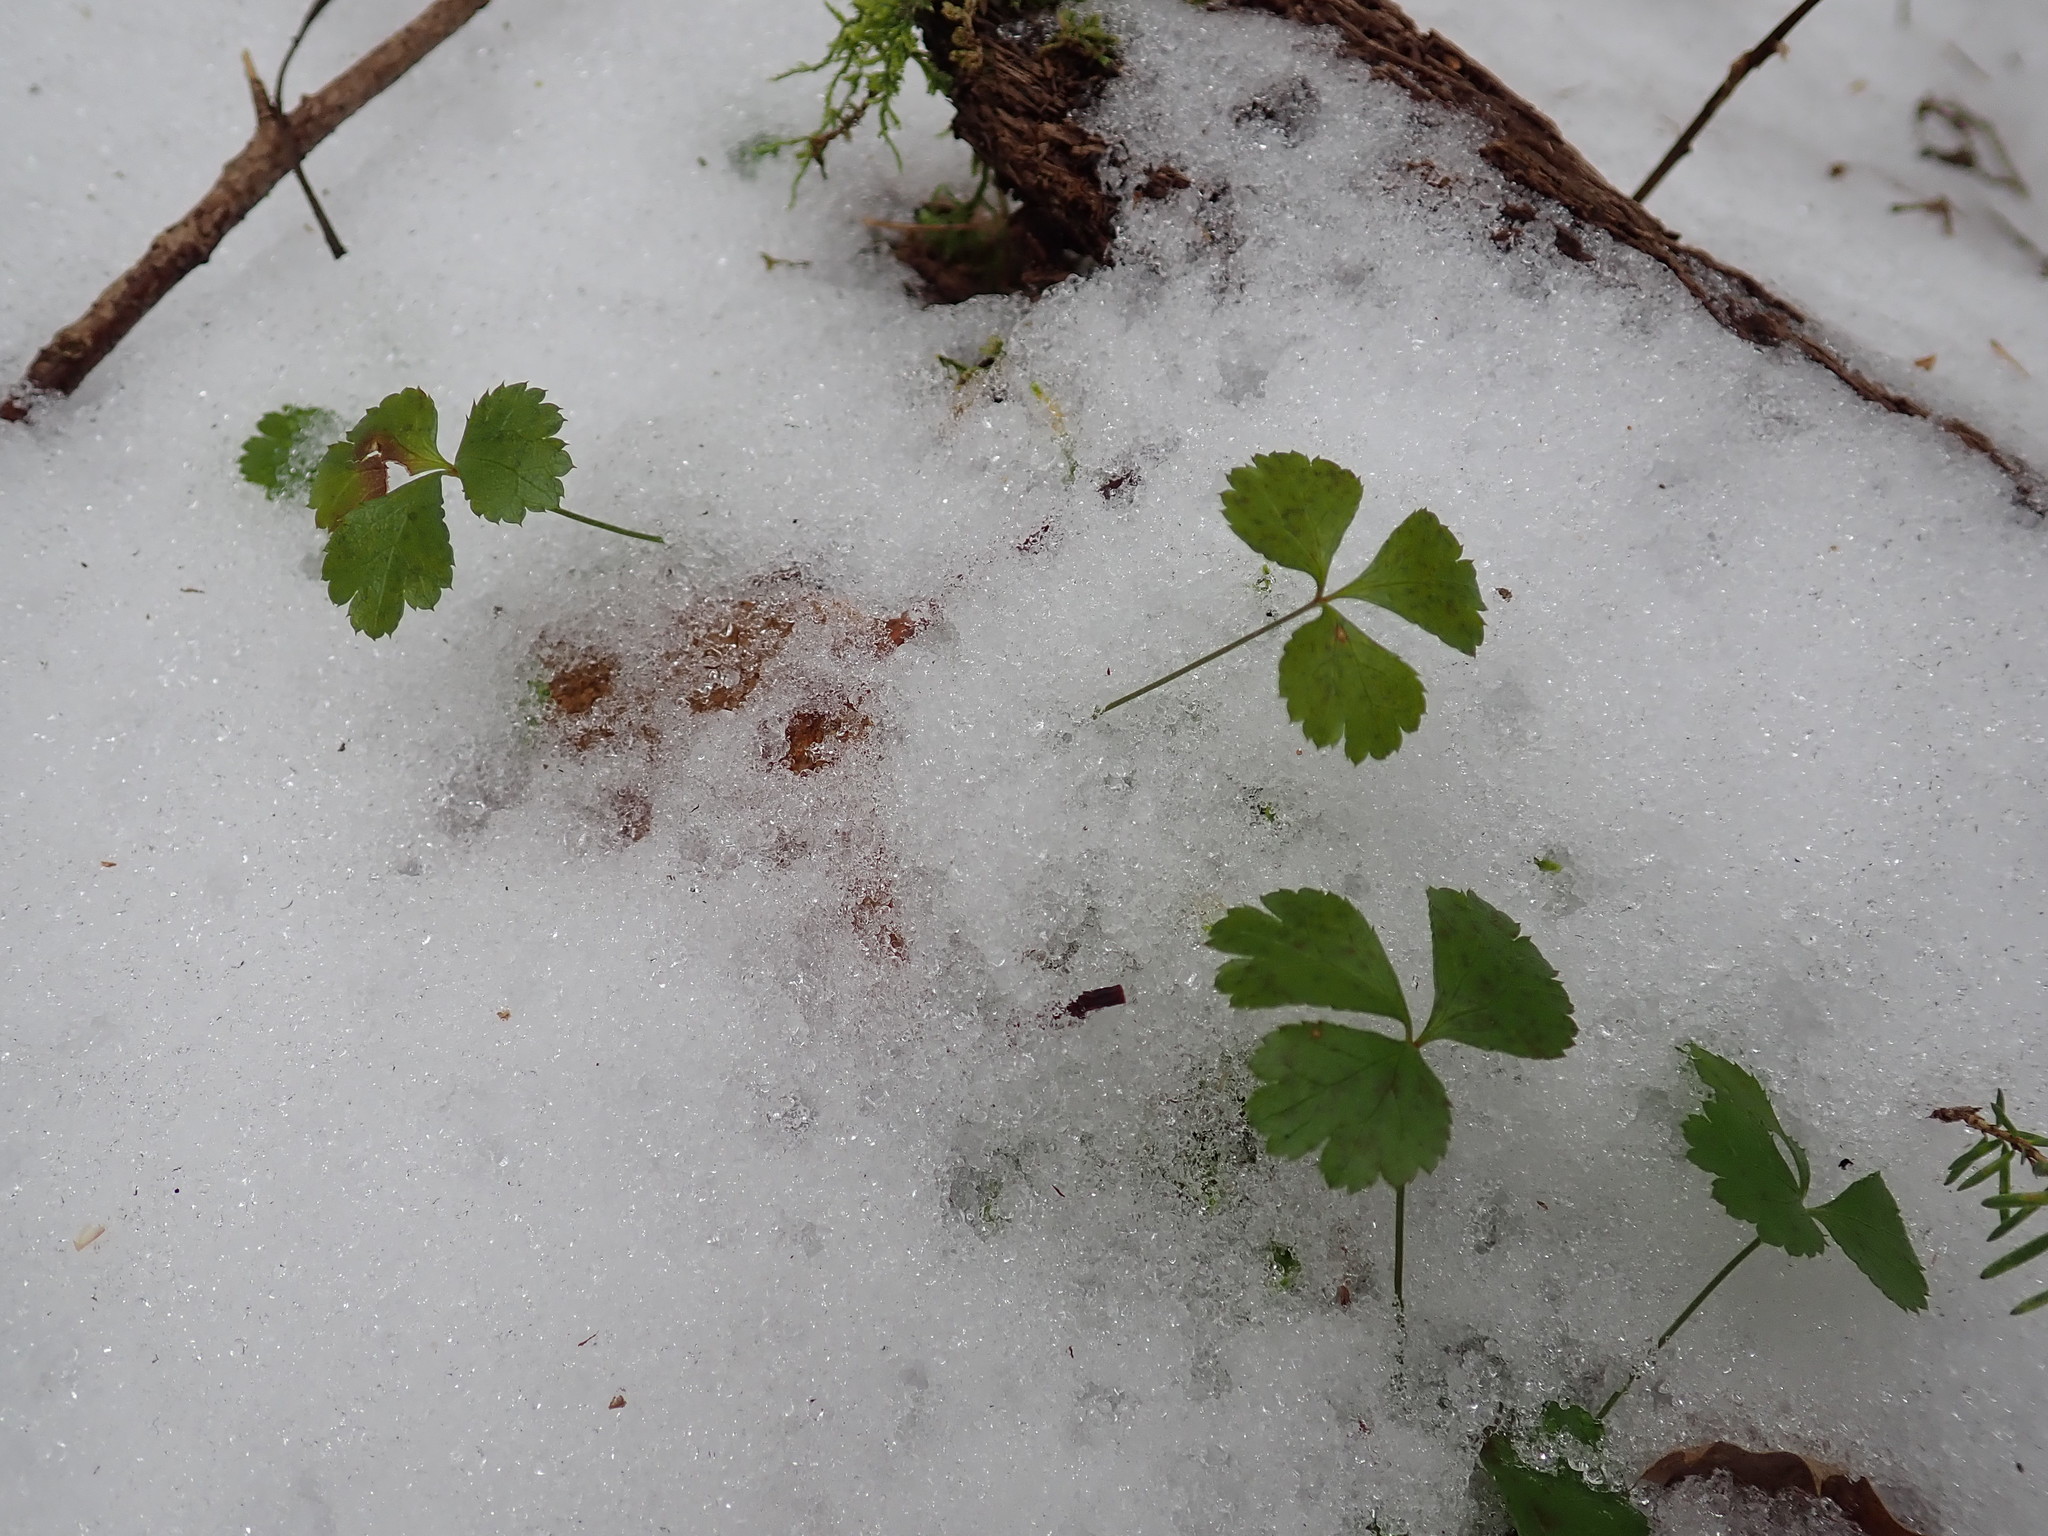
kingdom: Plantae
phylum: Tracheophyta
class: Magnoliopsida
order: Ranunculales
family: Ranunculaceae
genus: Coptis
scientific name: Coptis trifolia
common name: Canker-root
